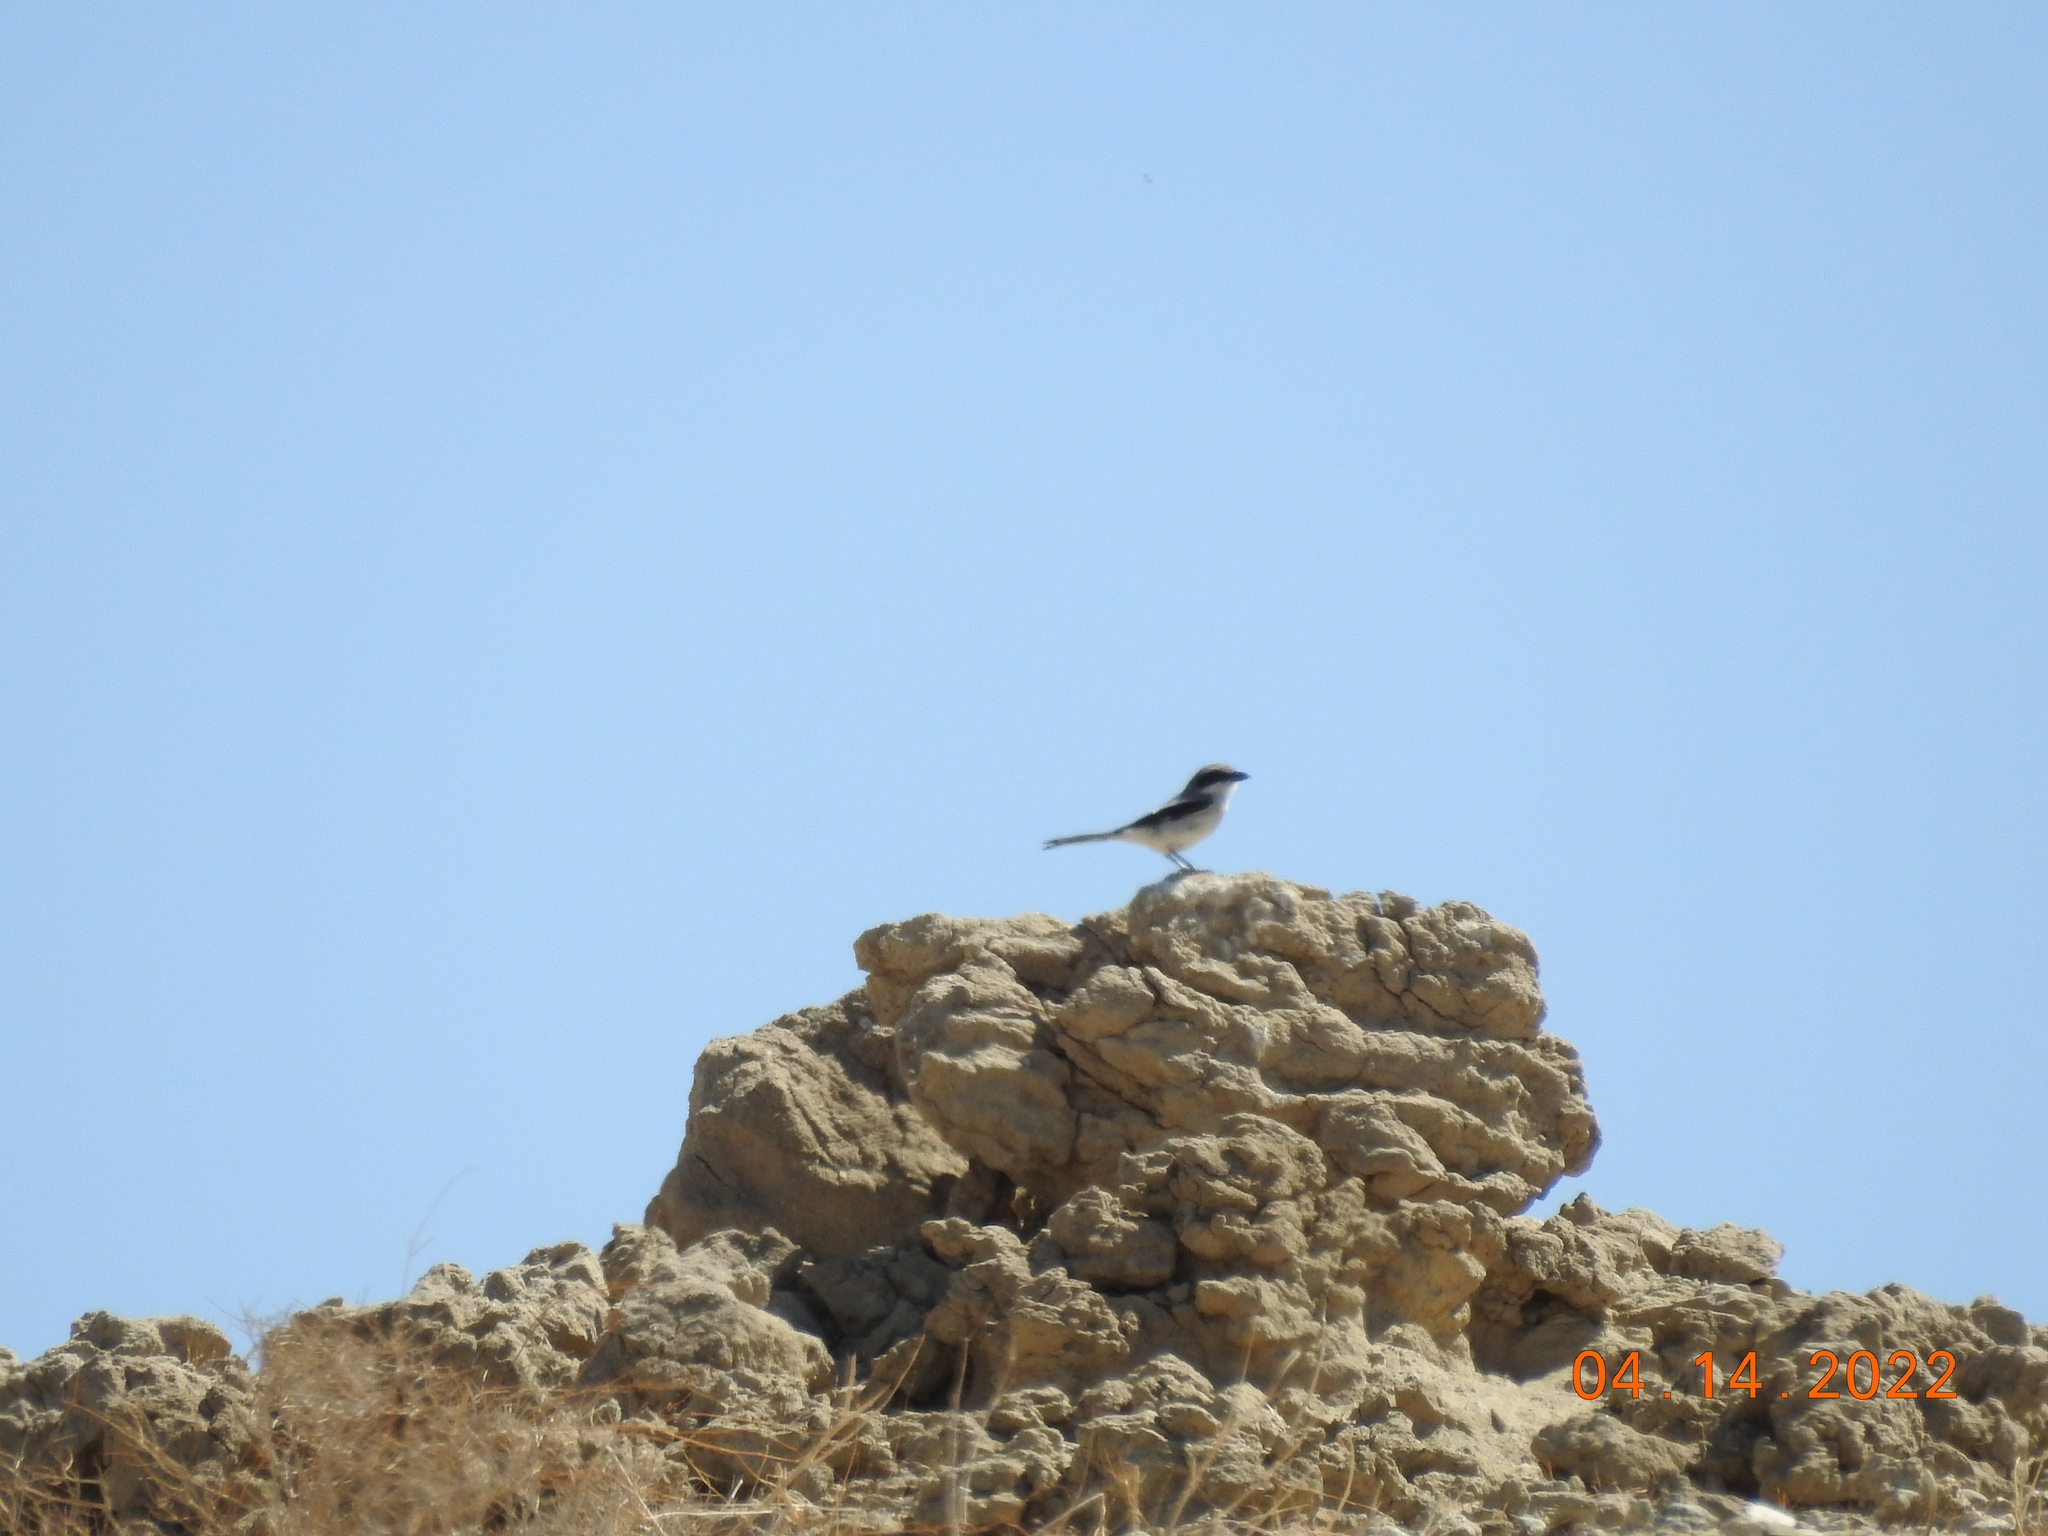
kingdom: Animalia
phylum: Chordata
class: Aves
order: Passeriformes
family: Laniidae
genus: Lanius
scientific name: Lanius ludovicianus
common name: Loggerhead shrike
